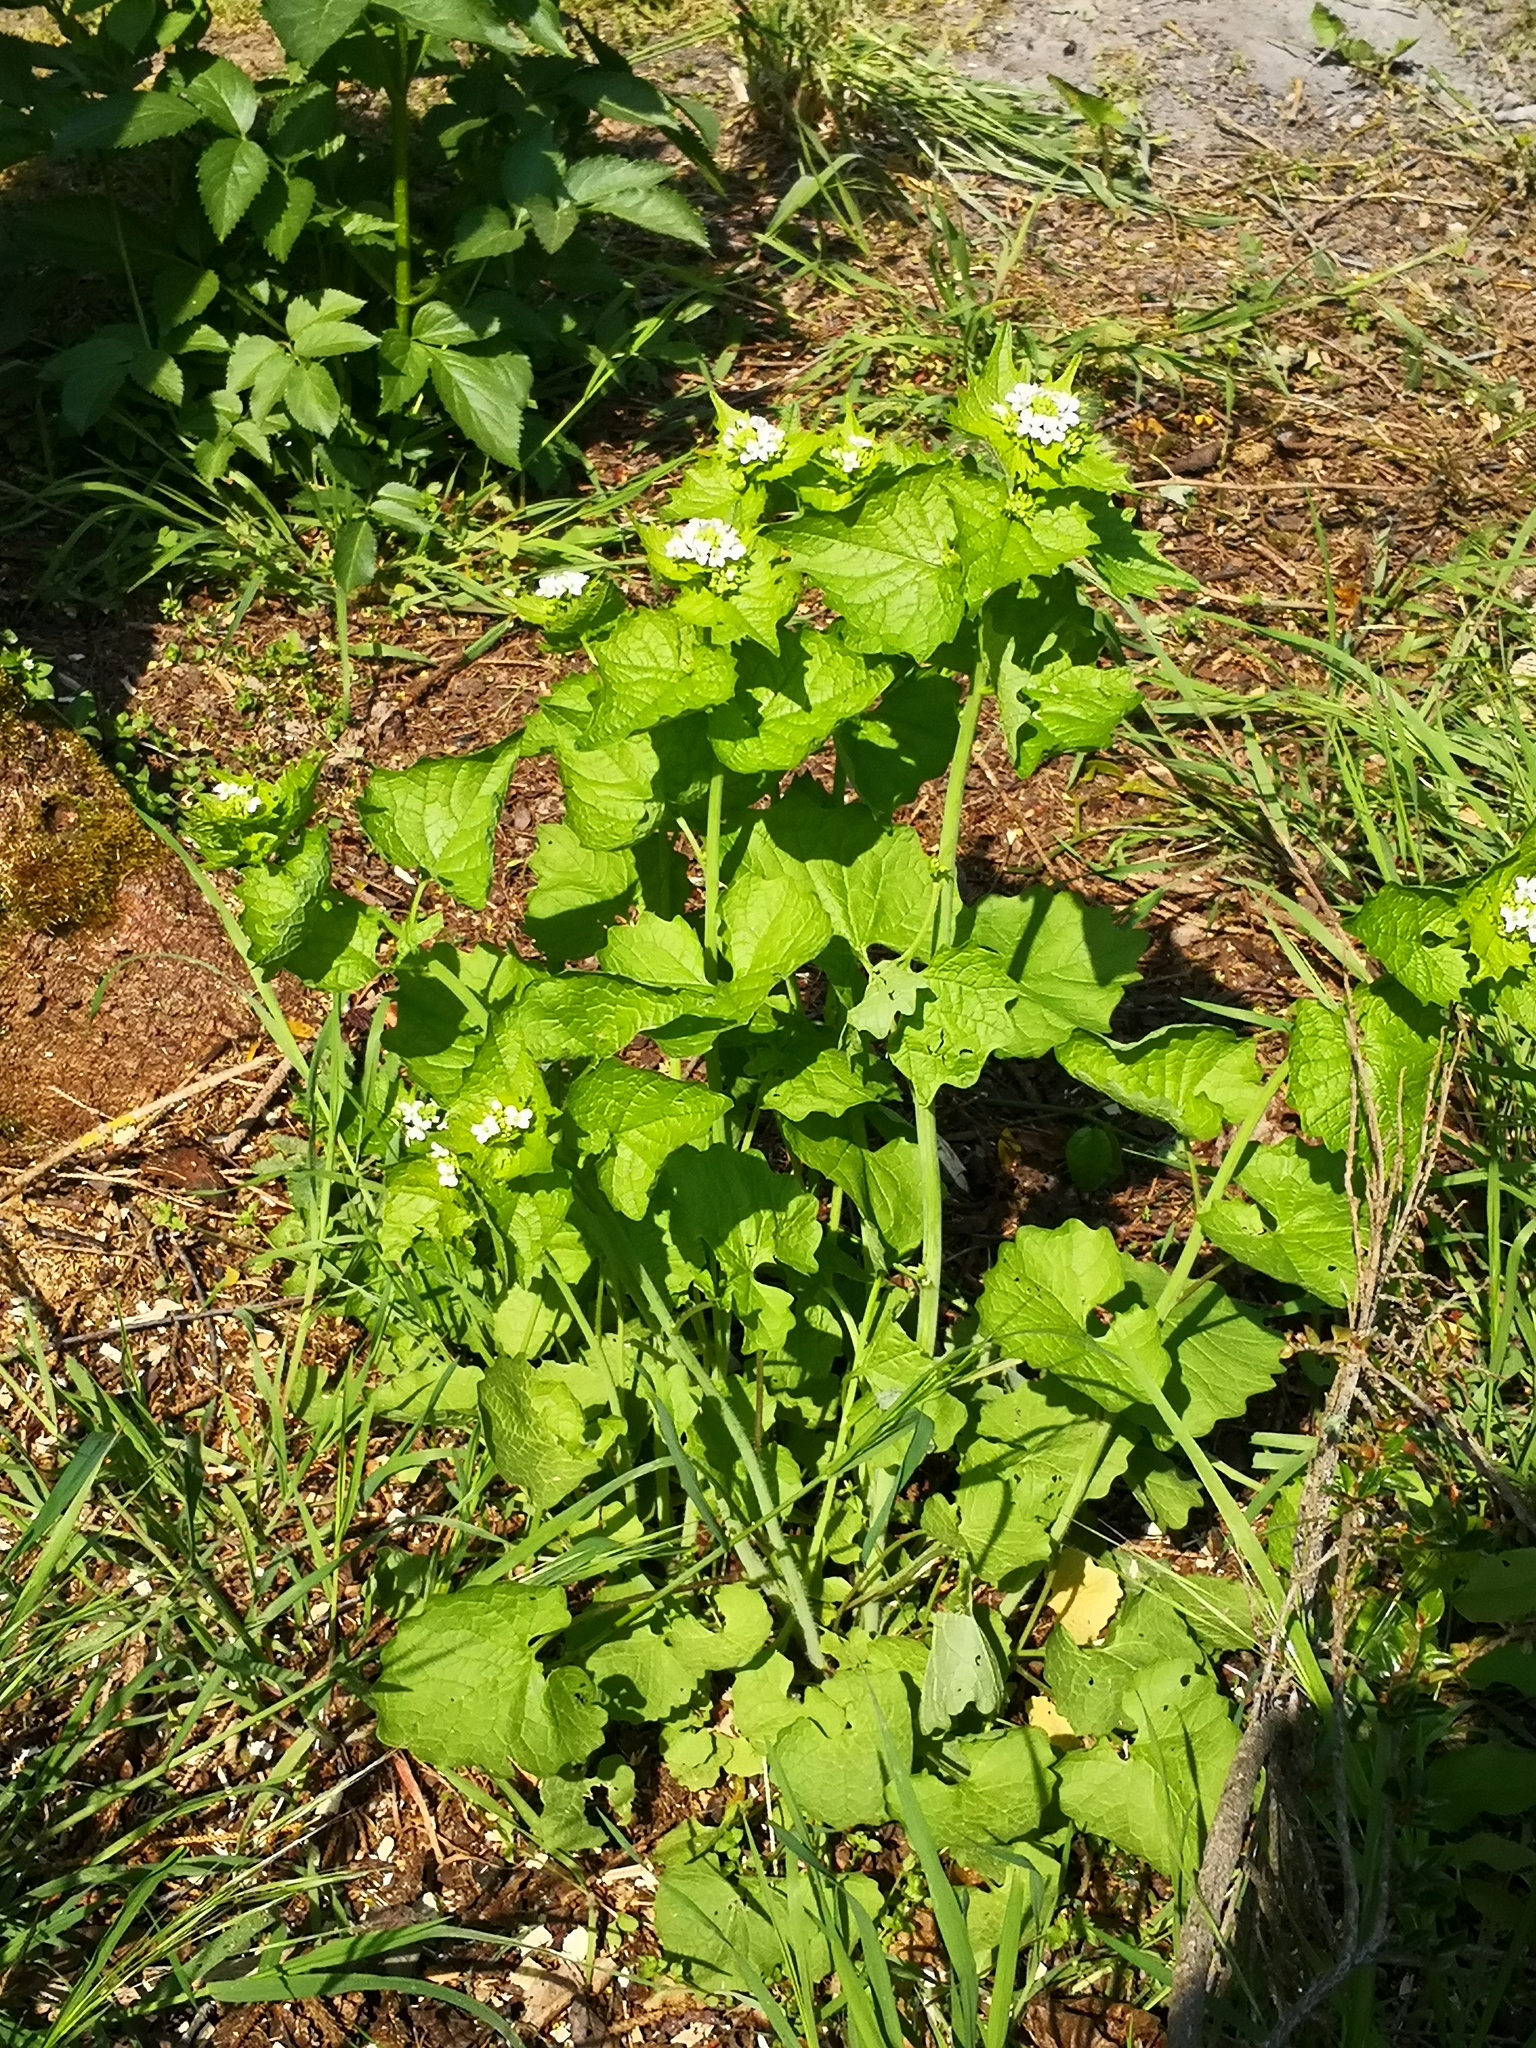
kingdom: Plantae
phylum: Tracheophyta
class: Magnoliopsida
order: Brassicales
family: Brassicaceae
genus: Alliaria
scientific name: Alliaria petiolata
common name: Garlic mustard
